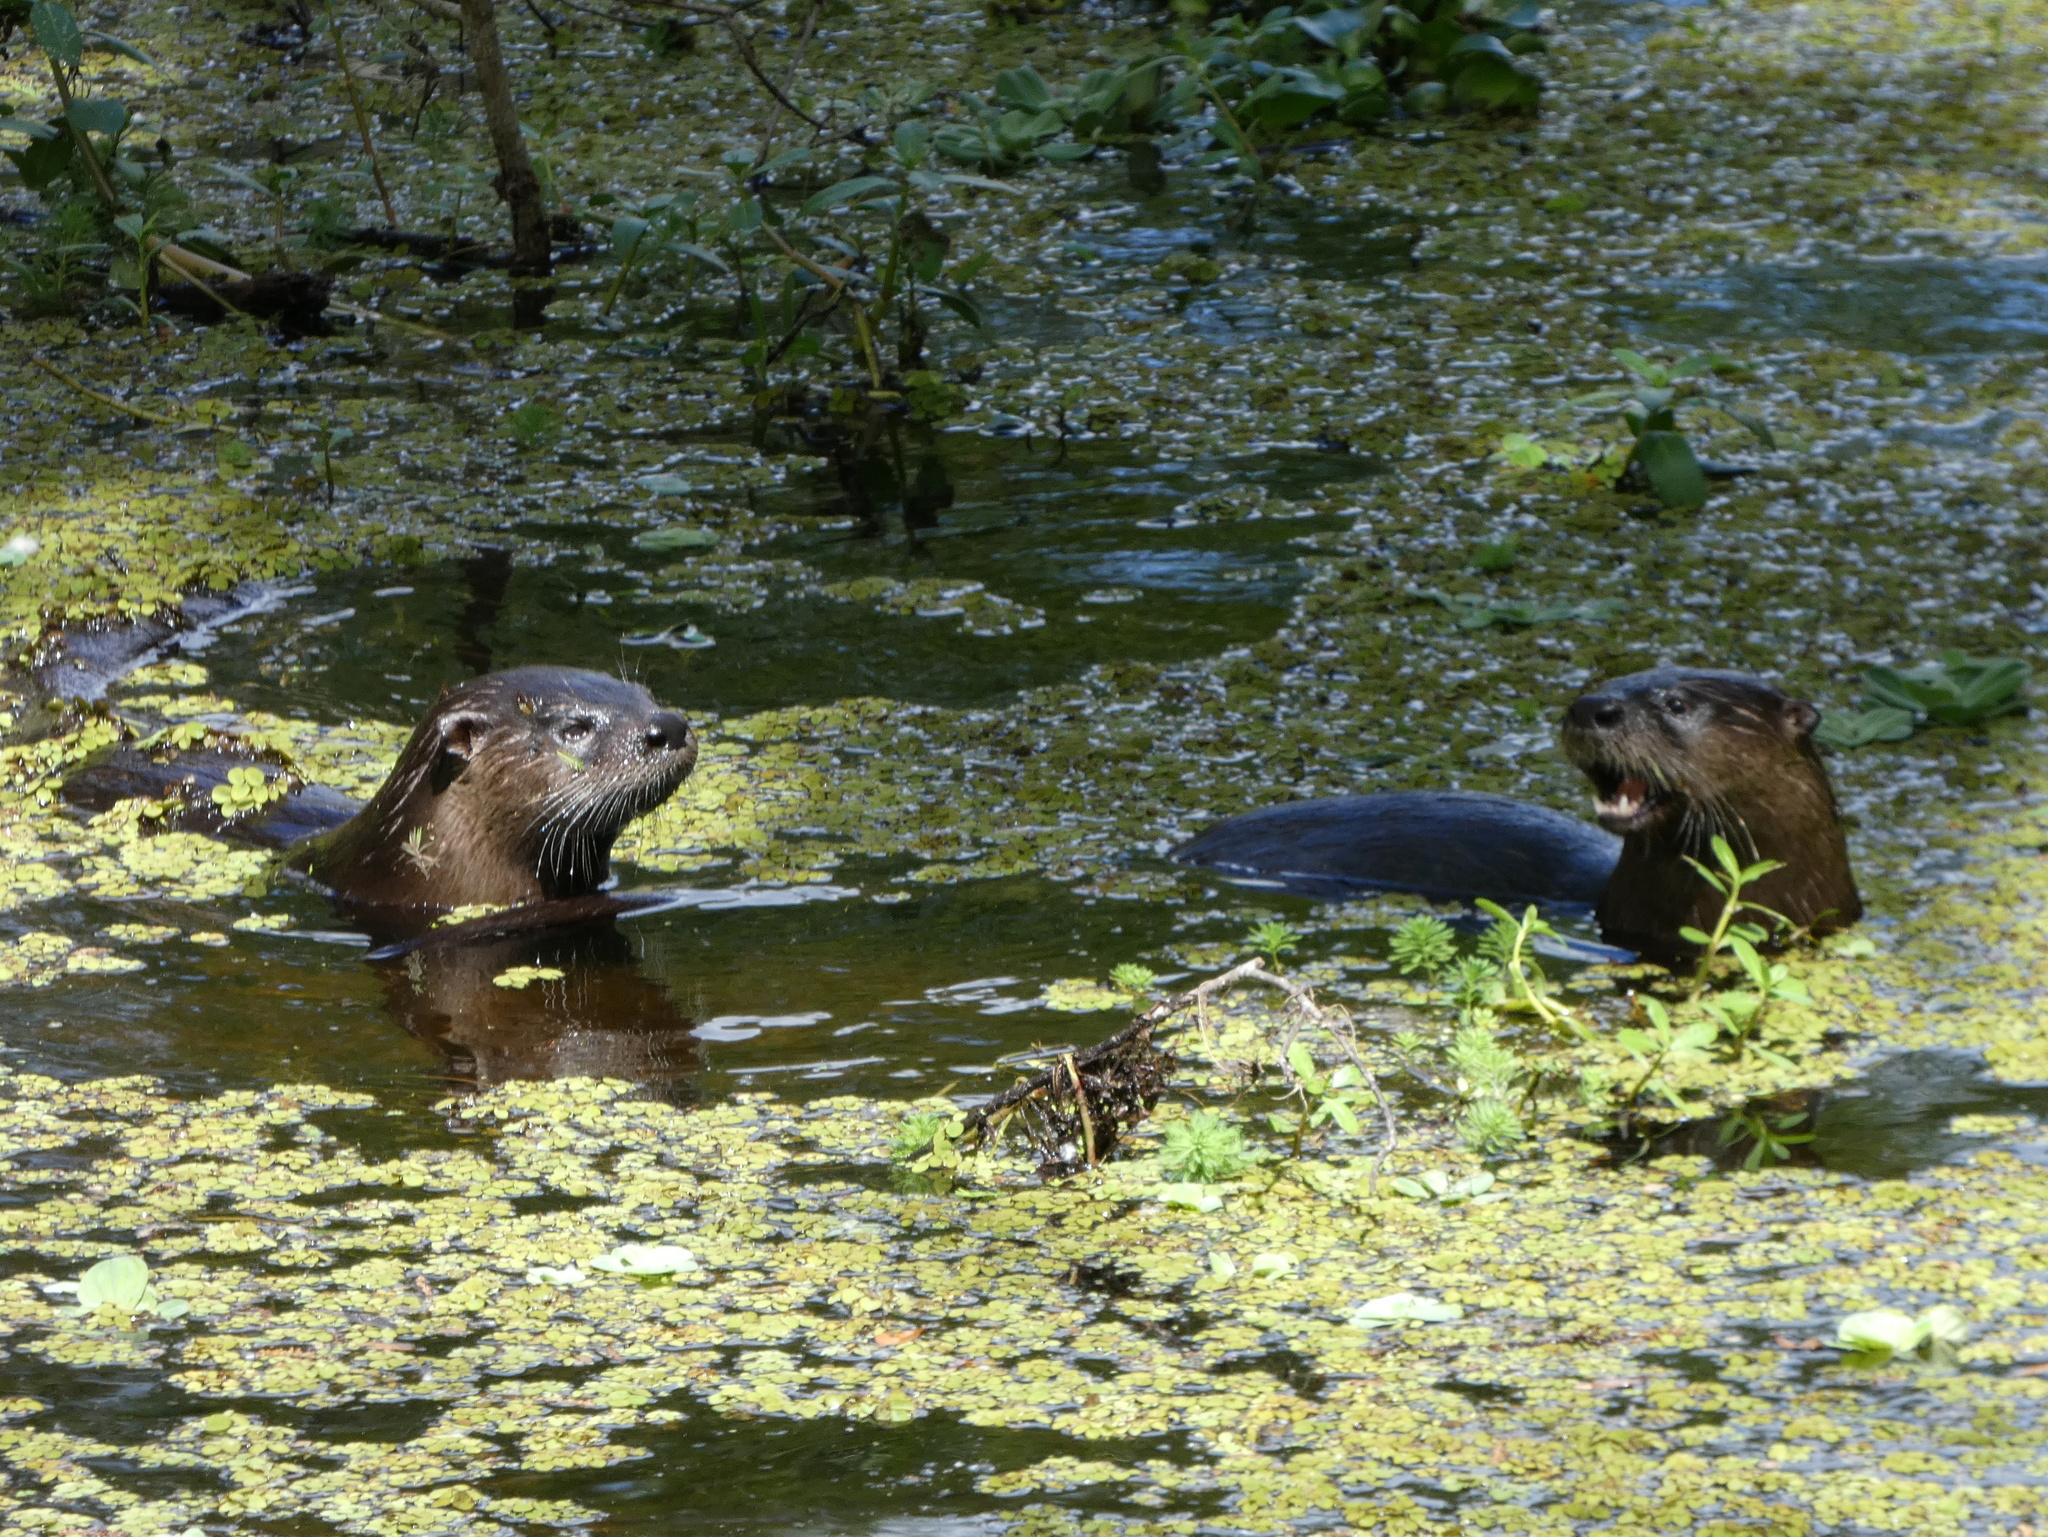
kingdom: Animalia
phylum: Chordata
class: Mammalia
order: Carnivora
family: Mustelidae
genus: Lontra
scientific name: Lontra canadensis
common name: North american river otter
